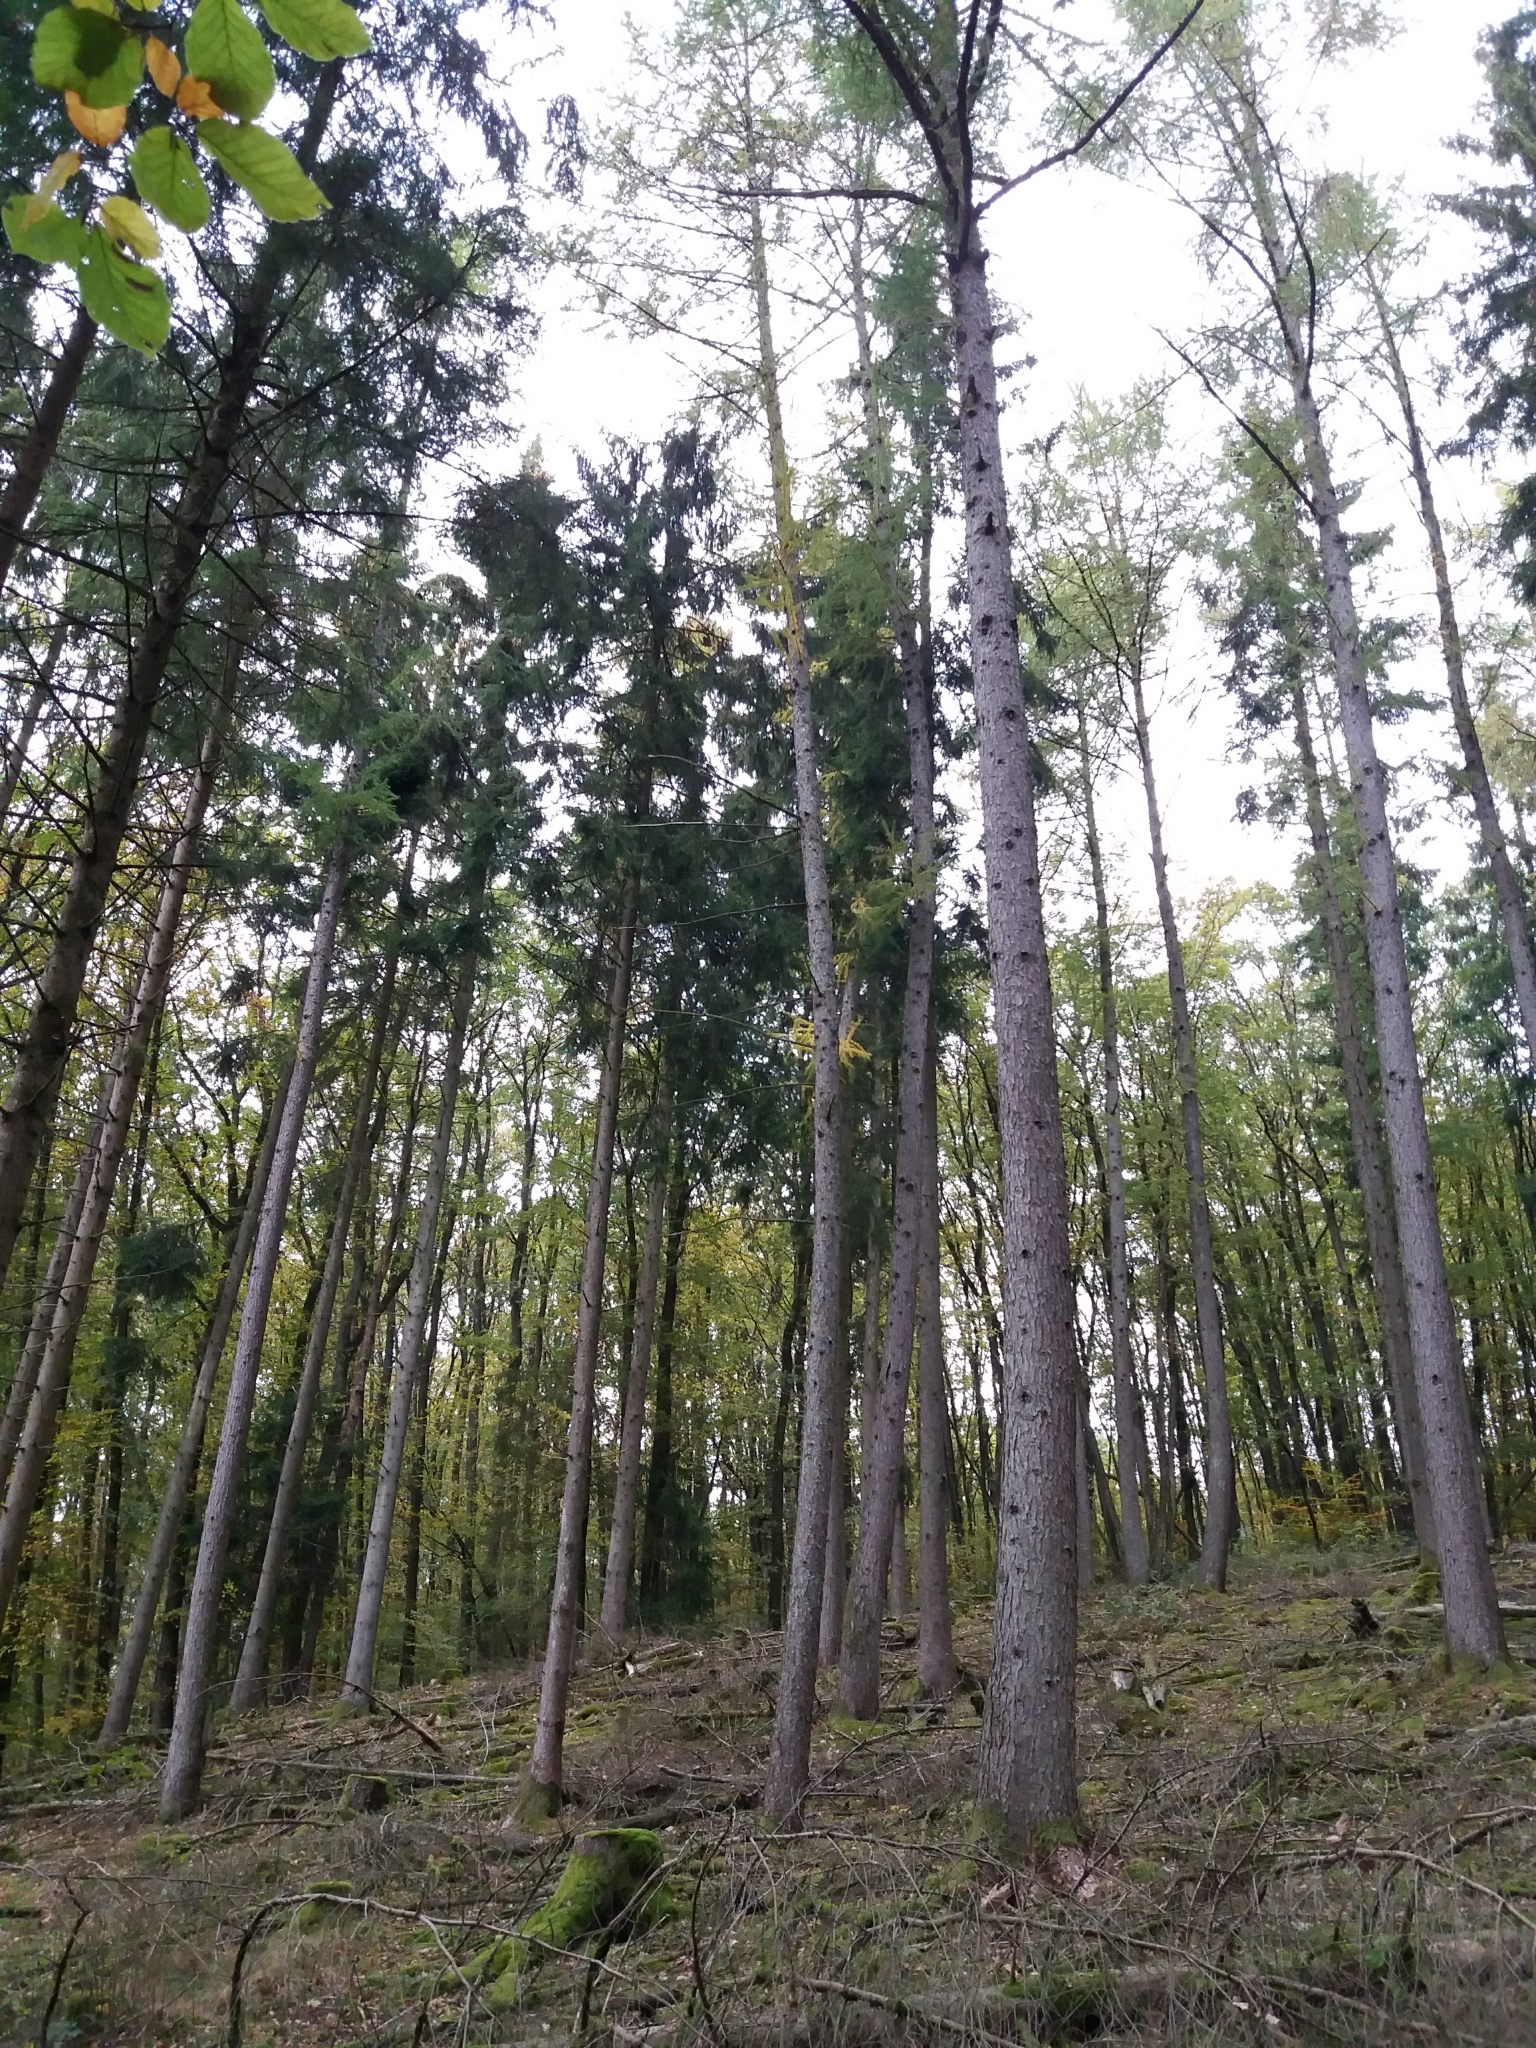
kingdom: Plantae
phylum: Tracheophyta
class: Pinopsida
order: Pinales
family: Pinaceae
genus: Picea
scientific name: Picea abies
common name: Norway spruce
